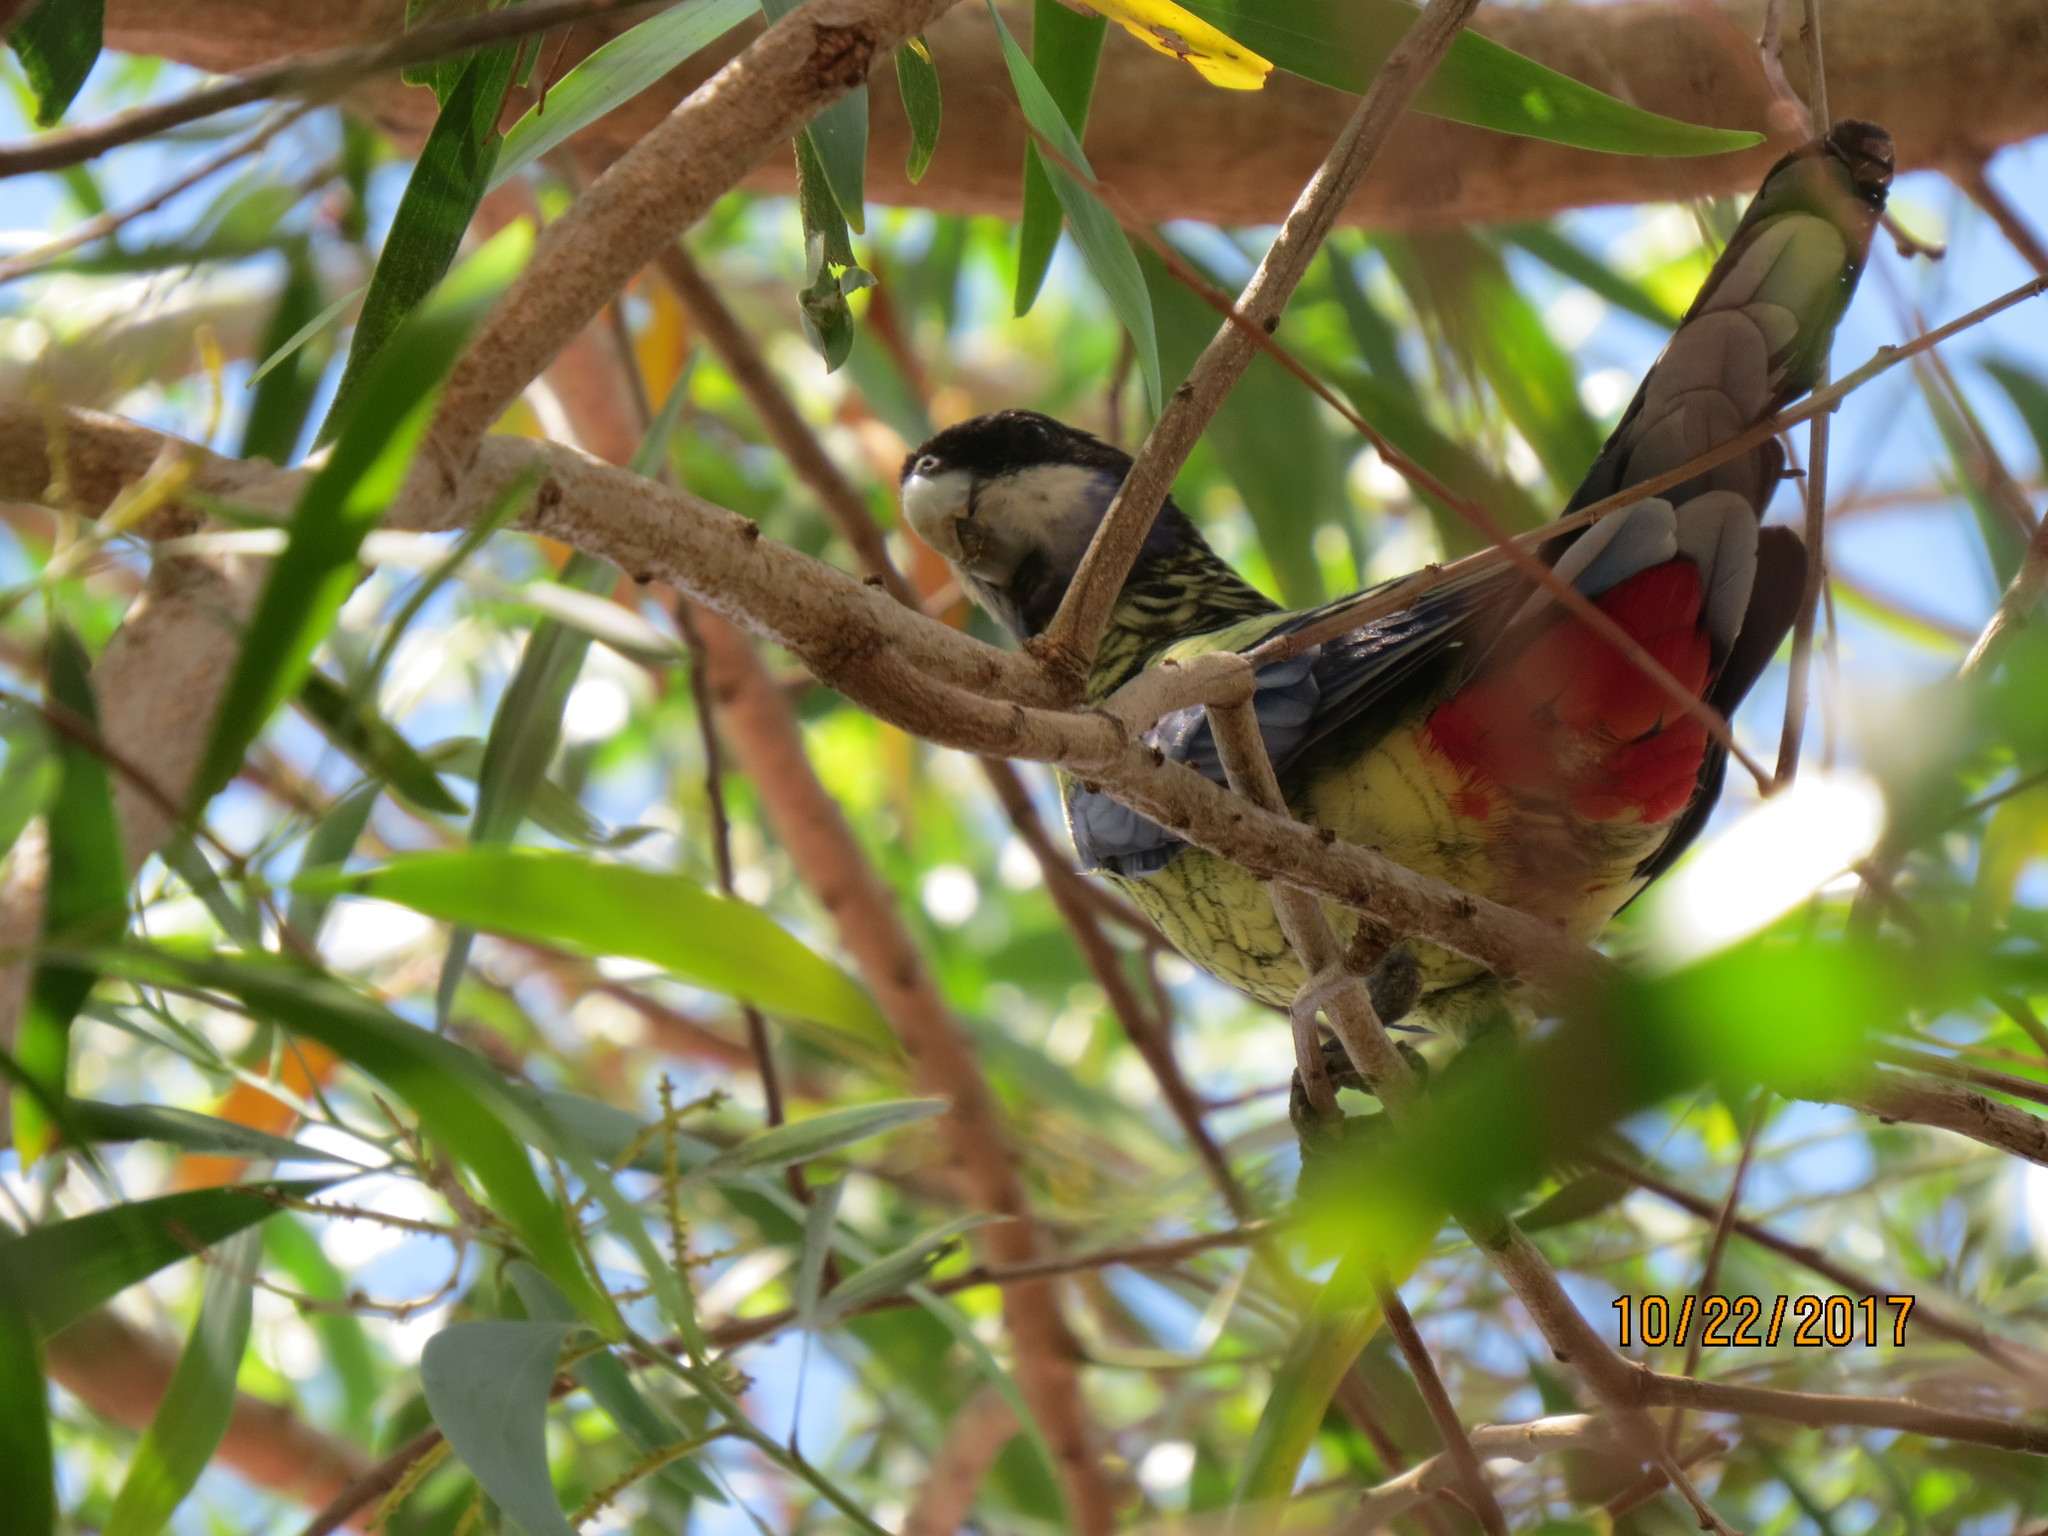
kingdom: Animalia
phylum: Chordata
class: Aves
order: Psittaciformes
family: Psittacidae
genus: Platycercus
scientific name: Platycercus venustus
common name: Northern rosella
